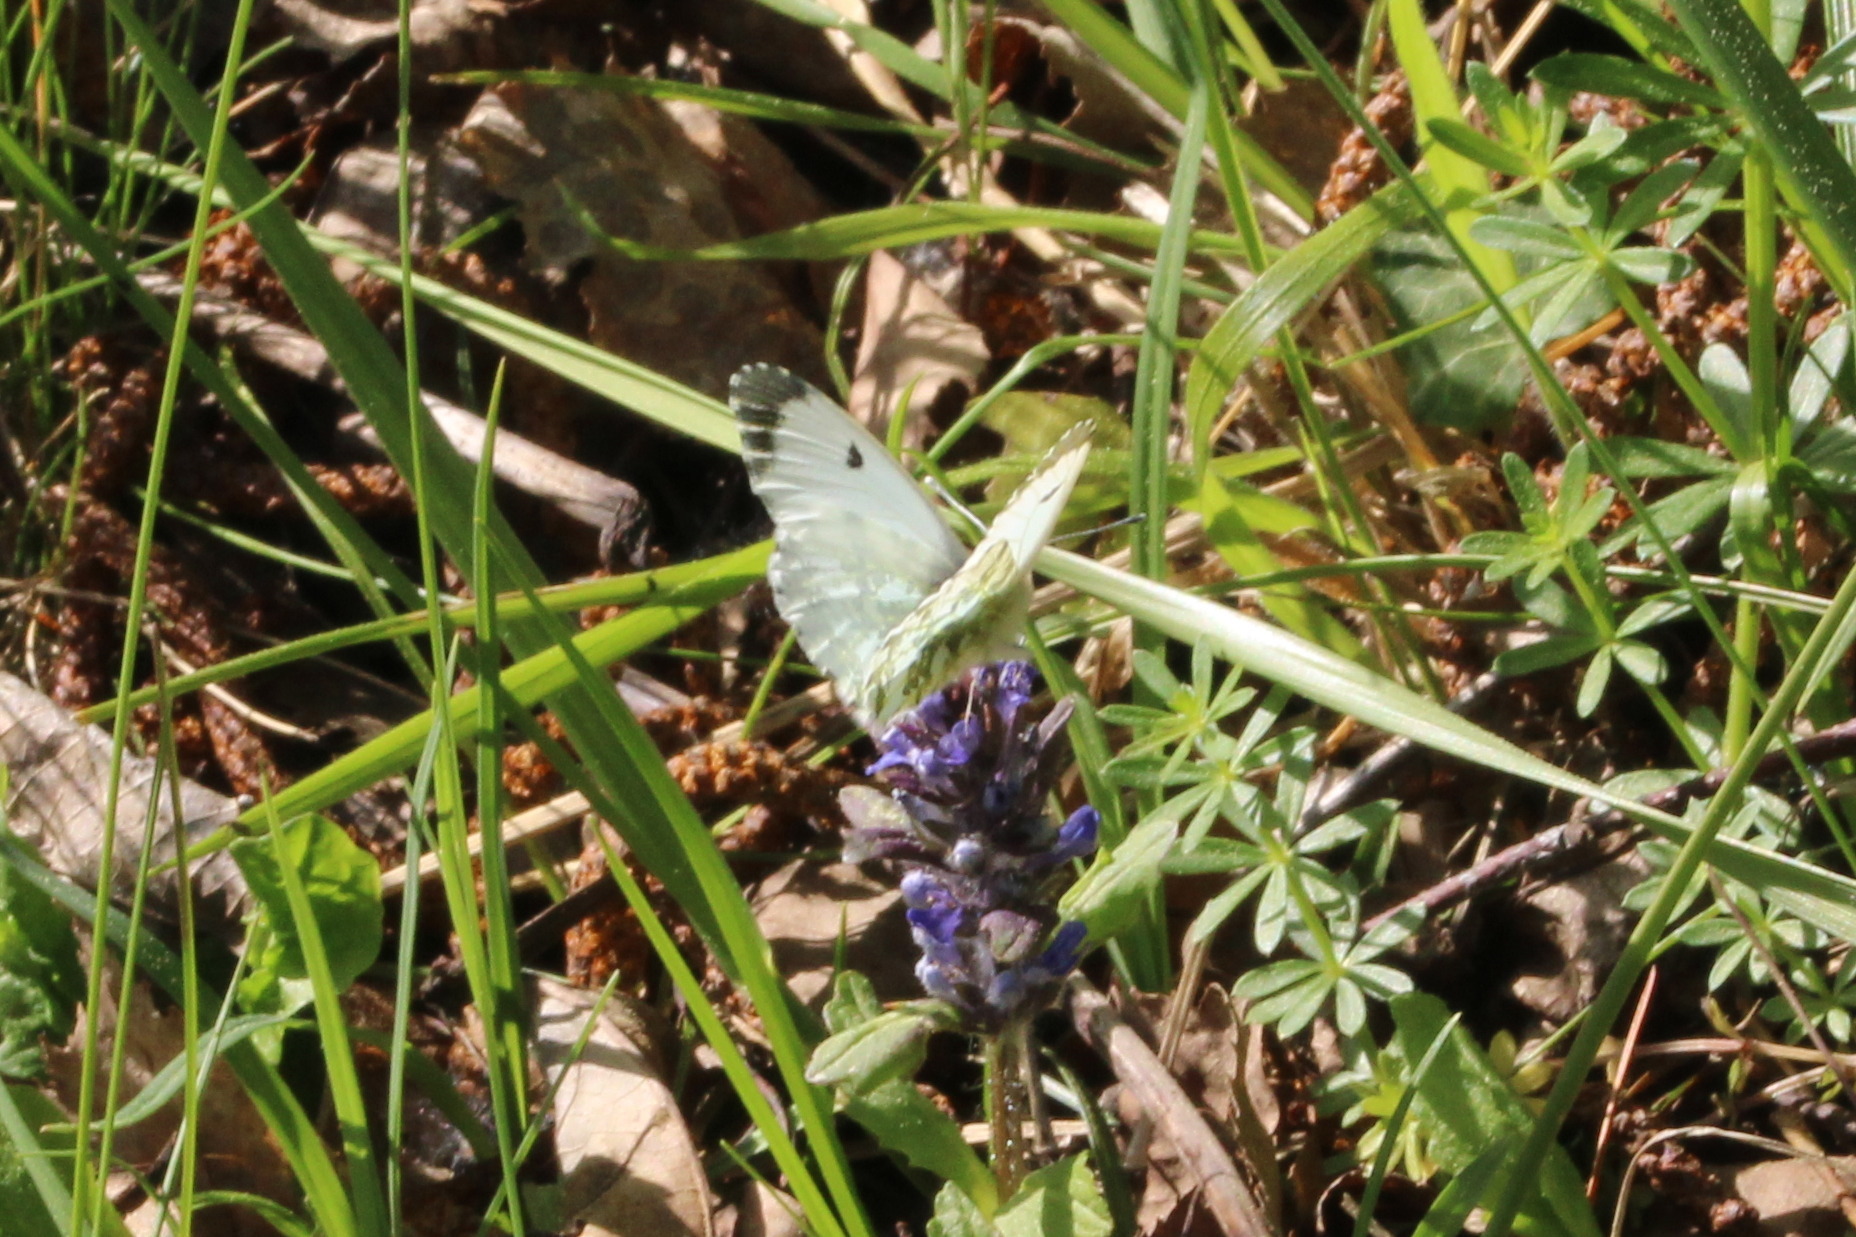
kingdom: Animalia
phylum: Arthropoda
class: Insecta
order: Lepidoptera
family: Pieridae
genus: Anthocharis
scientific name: Anthocharis cardamines
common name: Orange-tip
